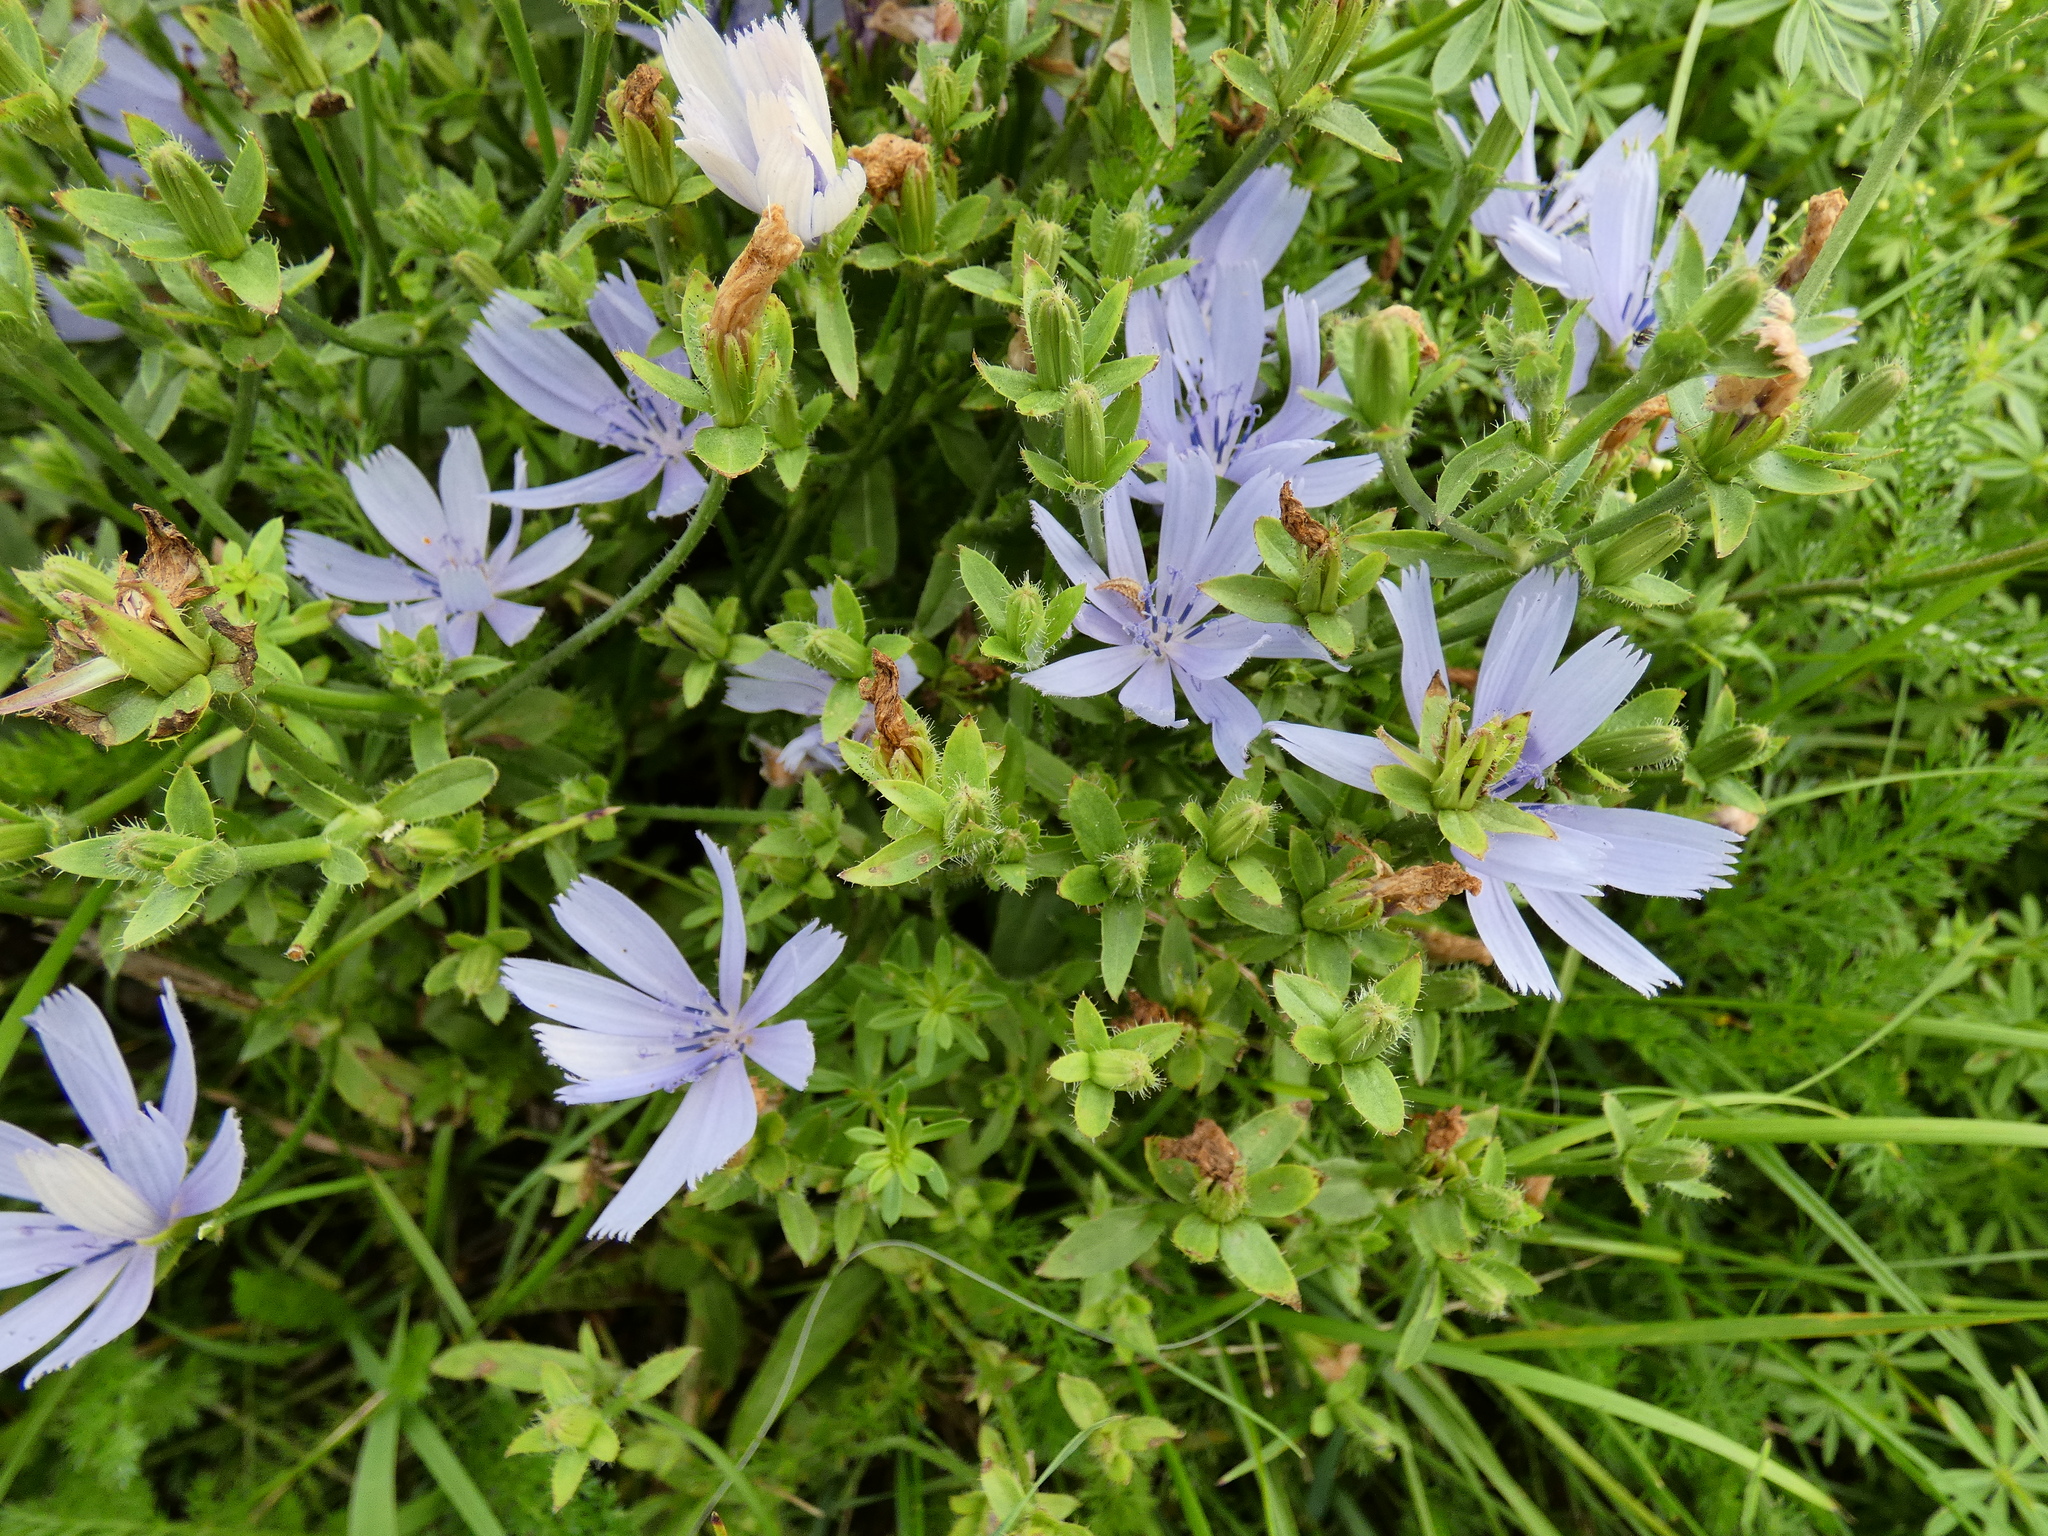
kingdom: Plantae
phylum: Tracheophyta
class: Magnoliopsida
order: Asterales
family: Asteraceae
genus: Cichorium
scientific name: Cichorium intybus
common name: Chicory
